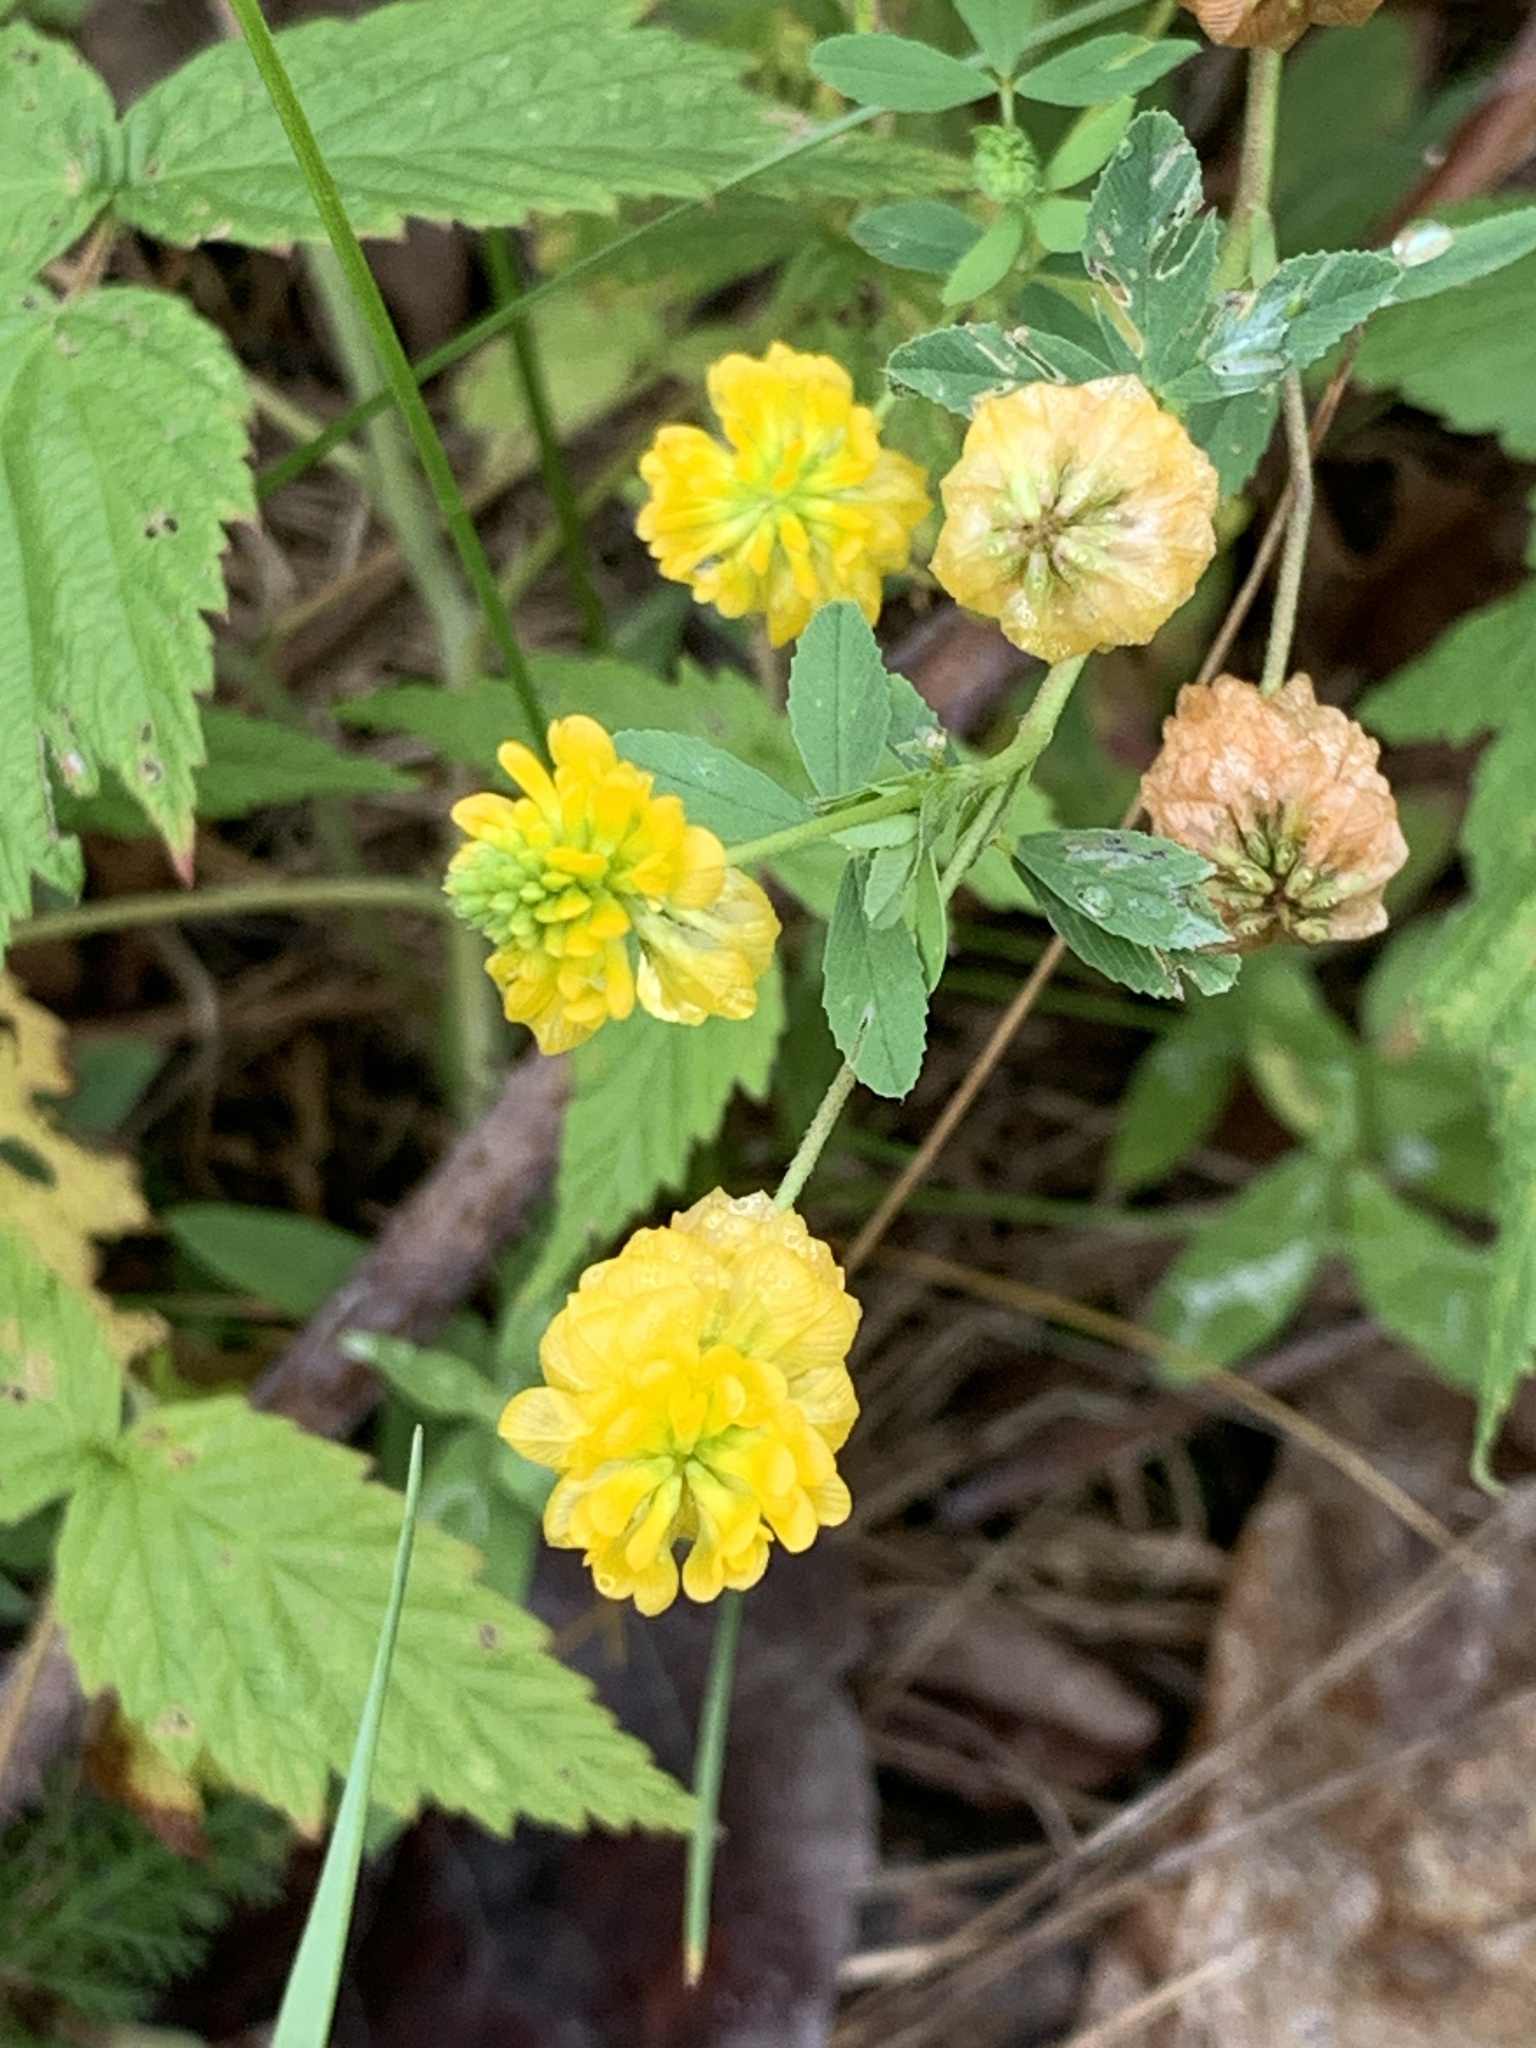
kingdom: Plantae
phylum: Tracheophyta
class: Magnoliopsida
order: Fabales
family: Fabaceae
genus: Trifolium
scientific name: Trifolium aureum
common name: Golden clover
